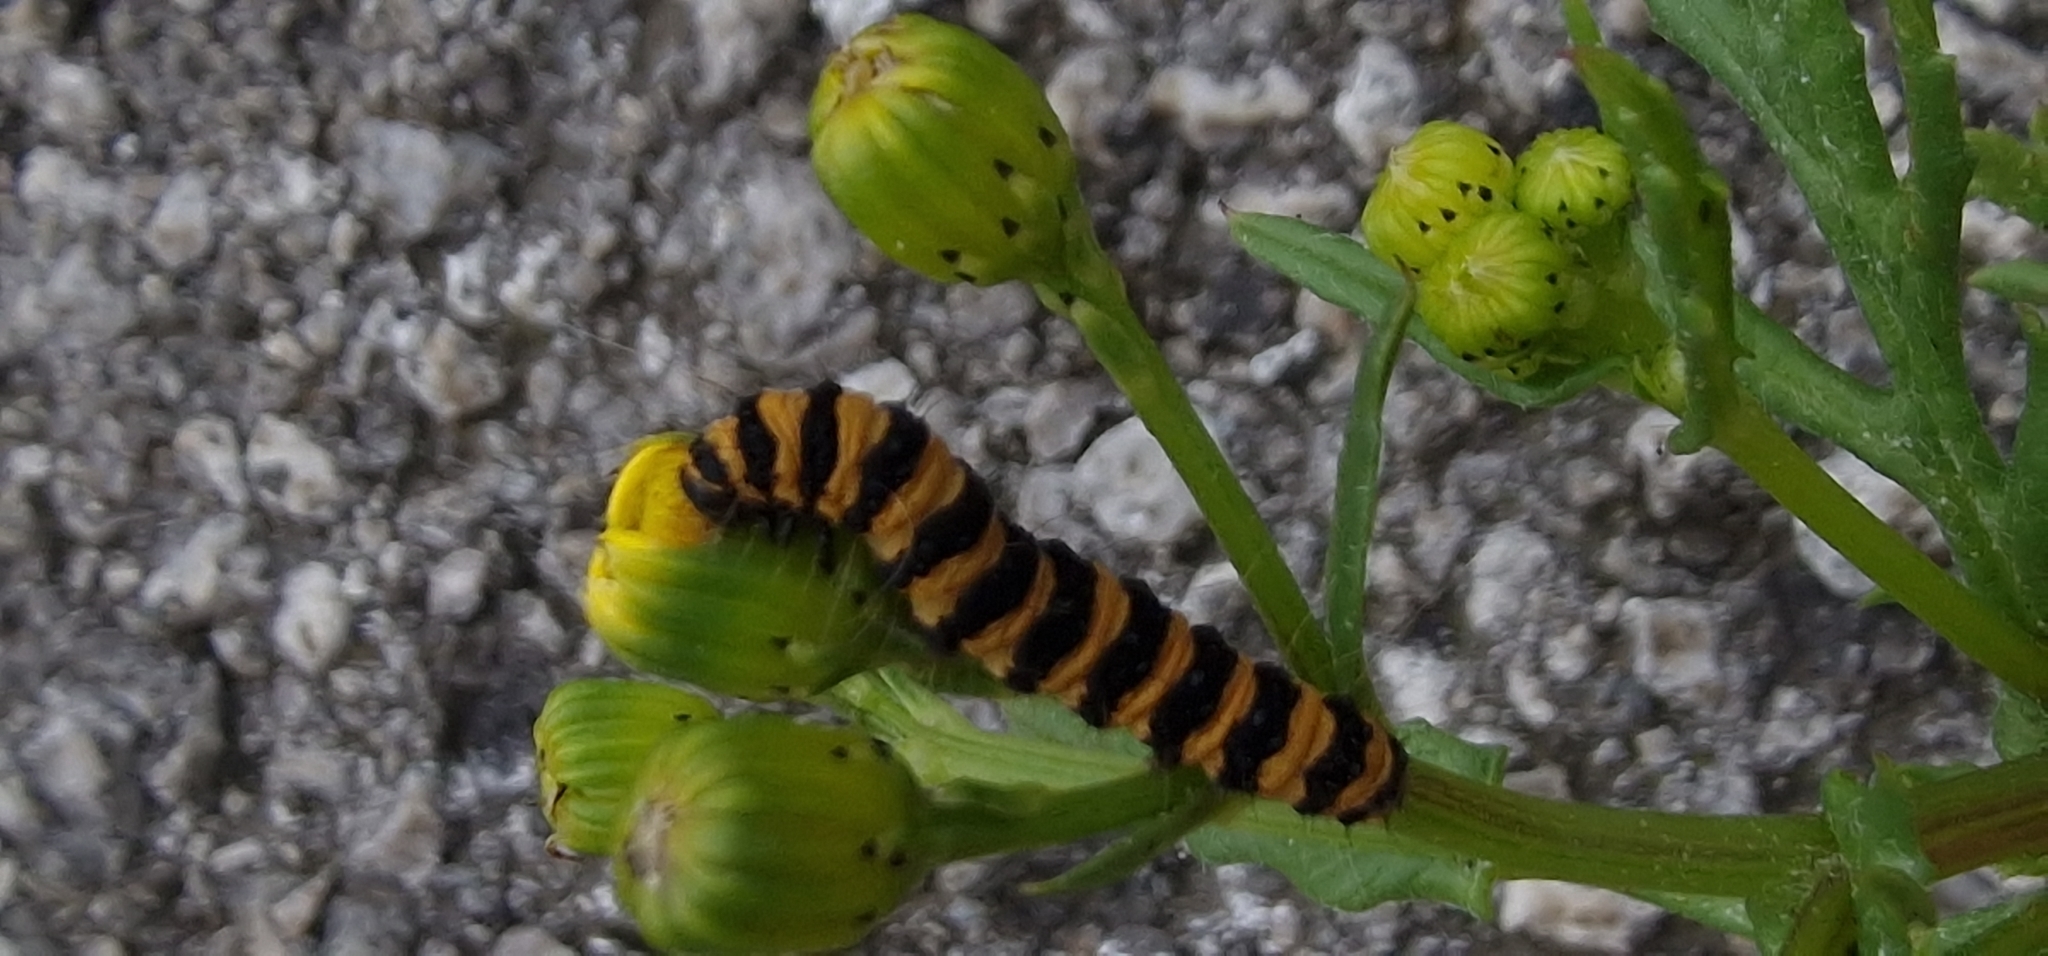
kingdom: Animalia
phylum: Arthropoda
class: Insecta
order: Lepidoptera
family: Erebidae
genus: Tyria
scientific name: Tyria jacobaeae
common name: Cinnabar
